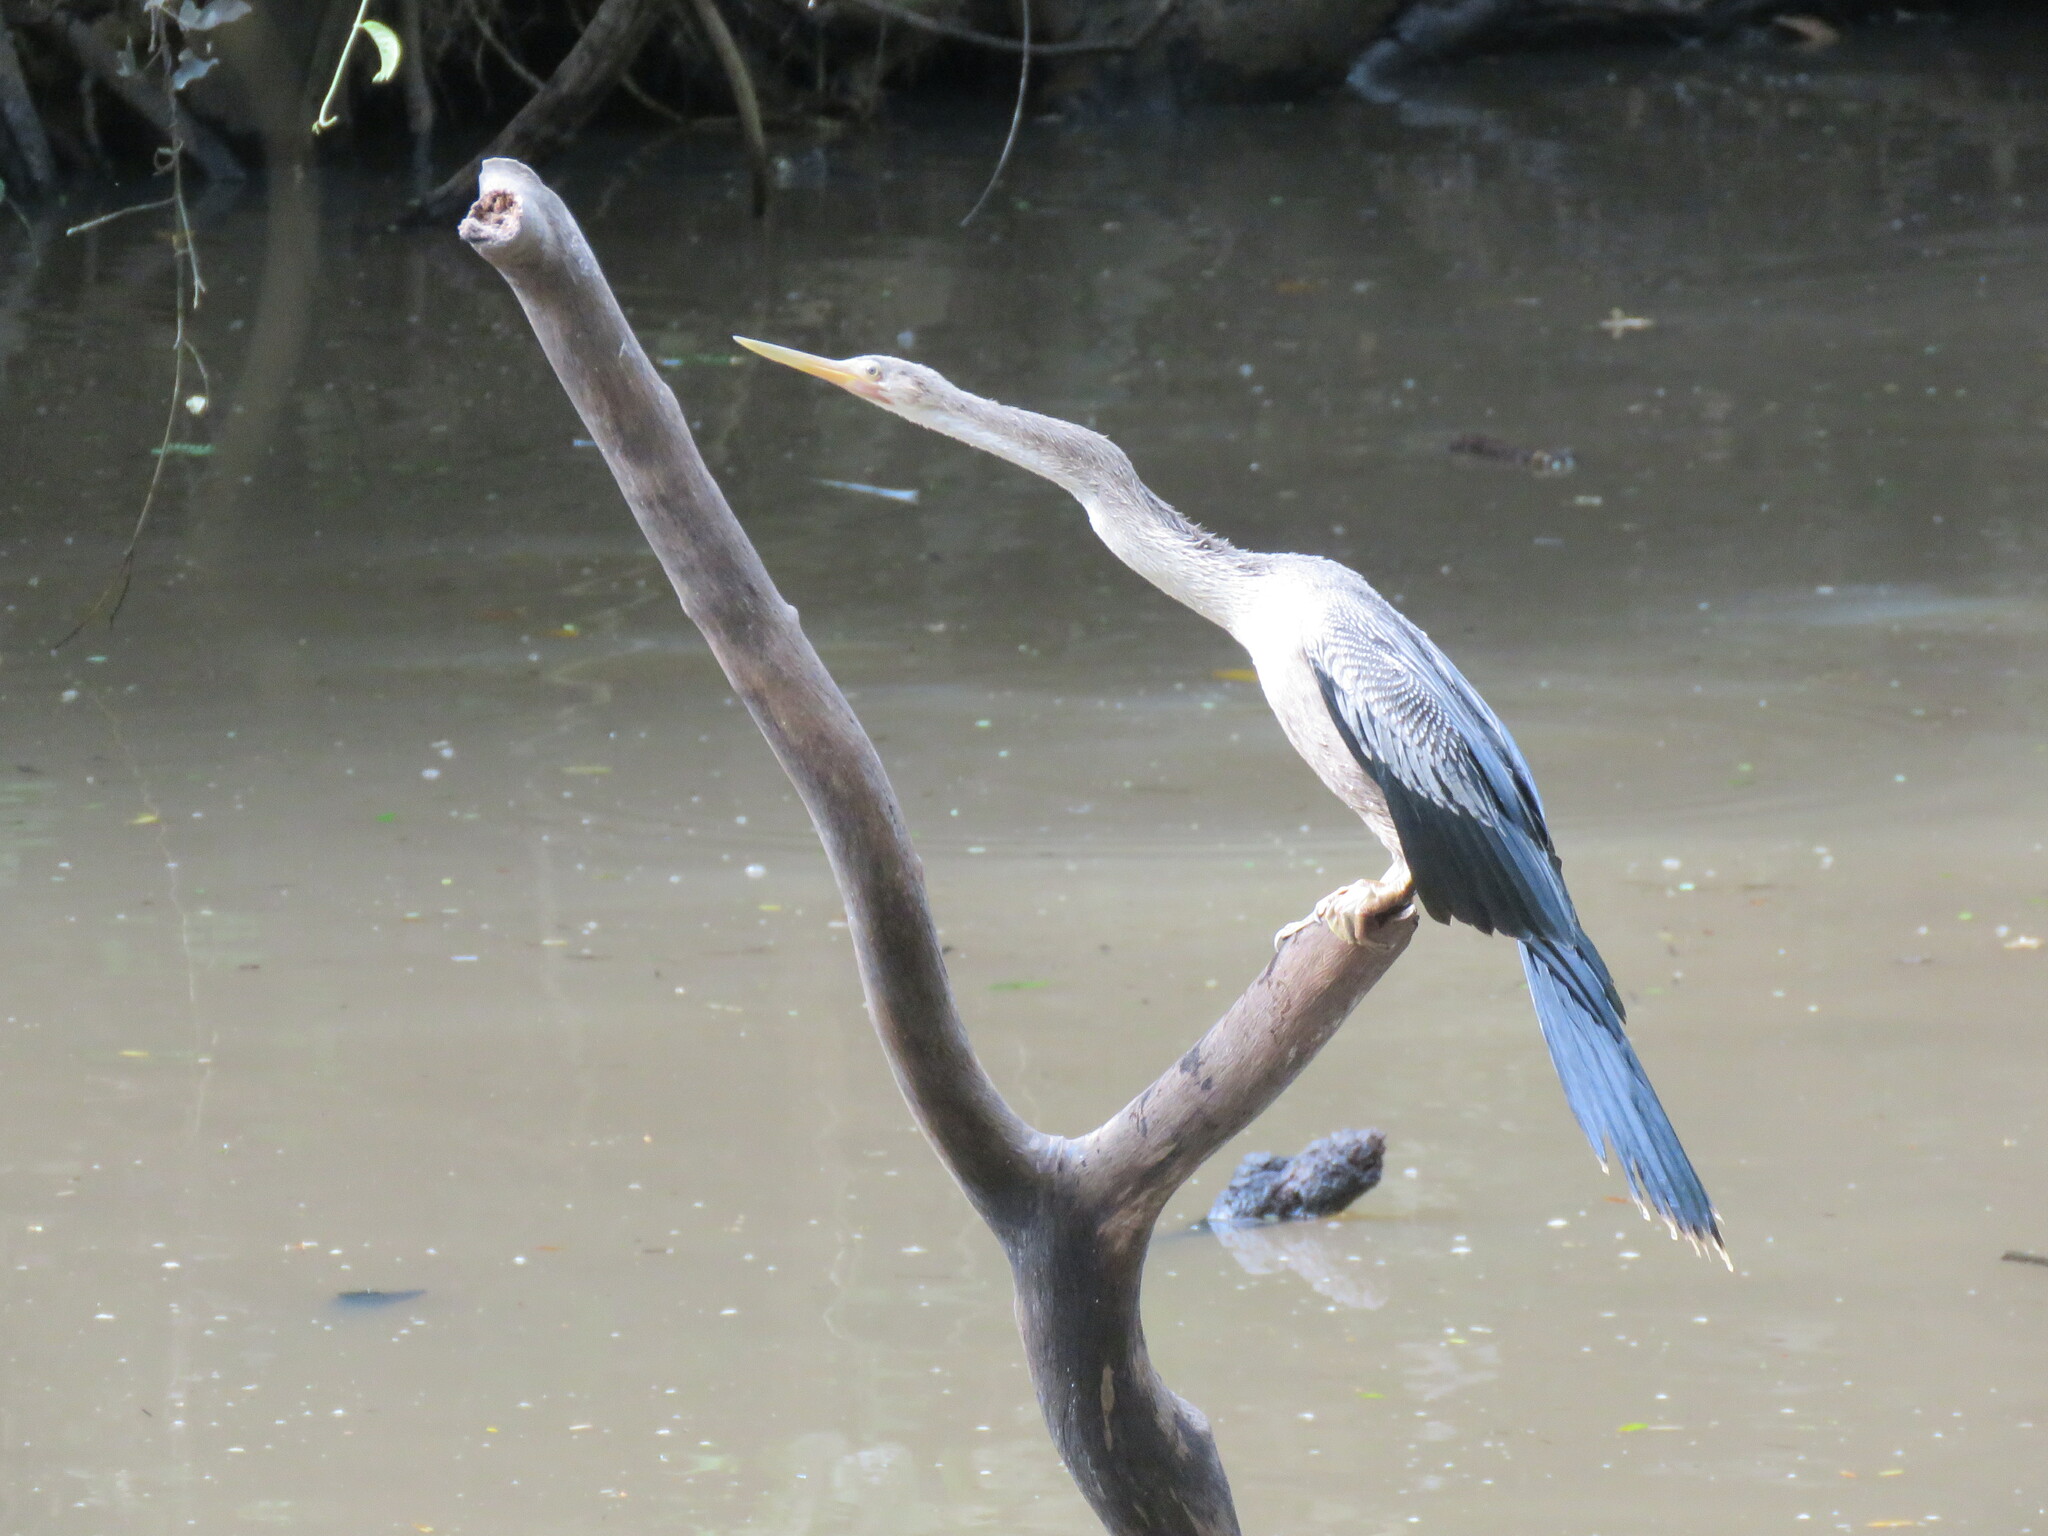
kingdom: Animalia
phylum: Chordata
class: Aves
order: Suliformes
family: Anhingidae
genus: Anhinga
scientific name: Anhinga anhinga
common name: Anhinga
